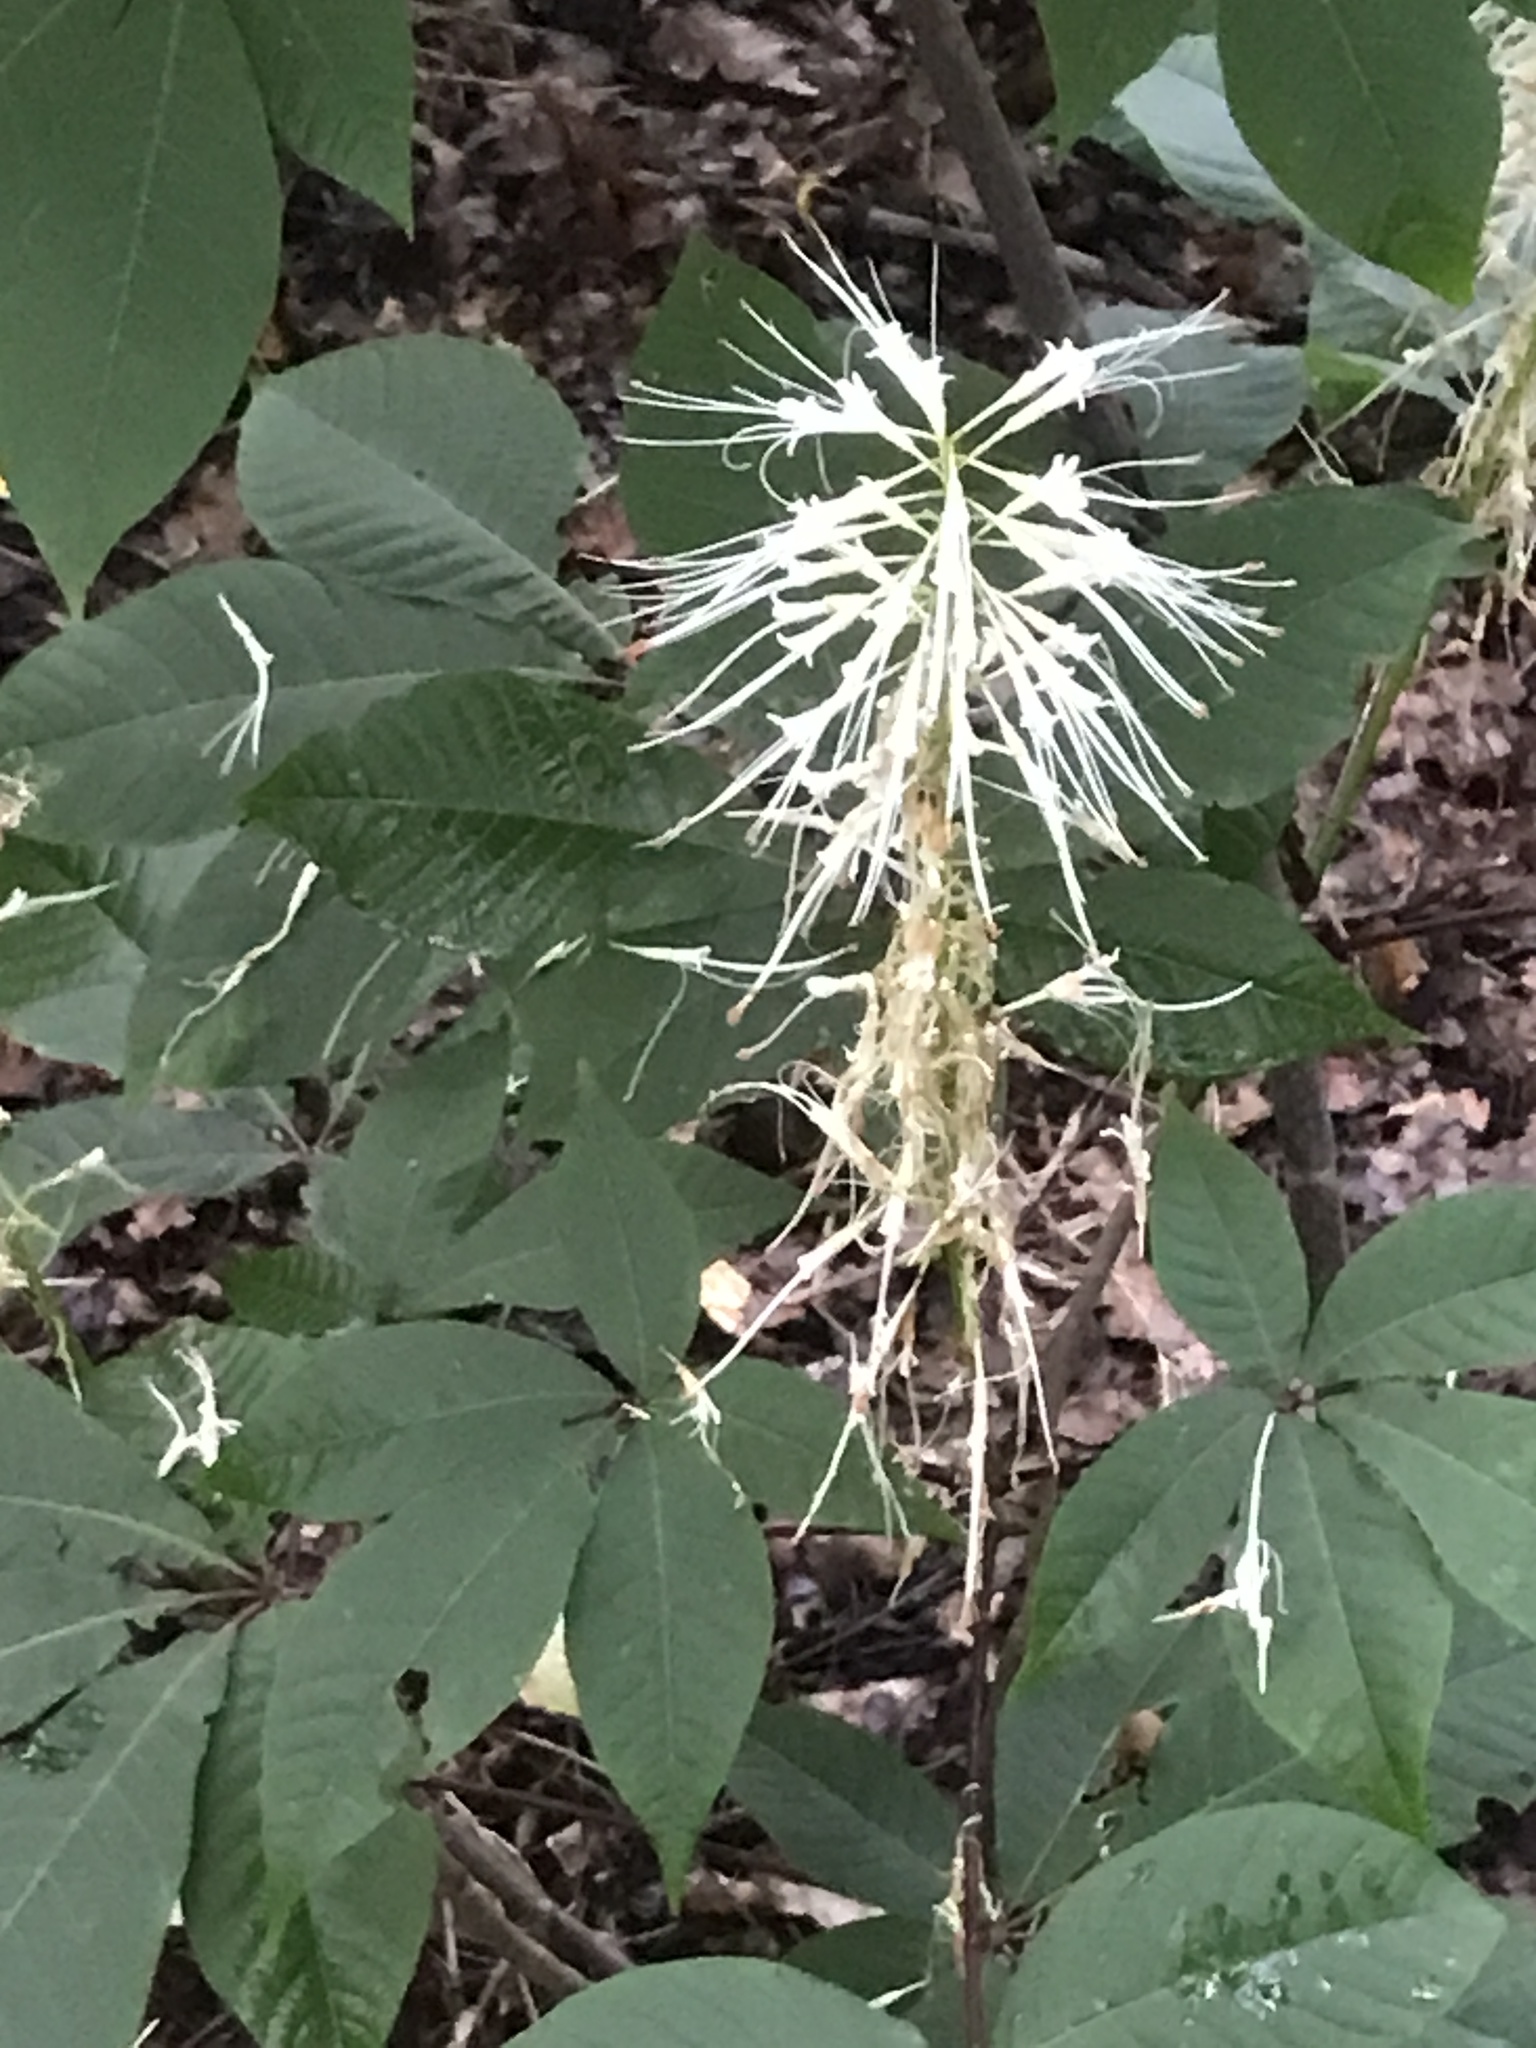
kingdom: Plantae
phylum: Tracheophyta
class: Magnoliopsida
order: Sapindales
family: Sapindaceae
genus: Aesculus
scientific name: Aesculus parviflora
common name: Bottlebrush buckeye
